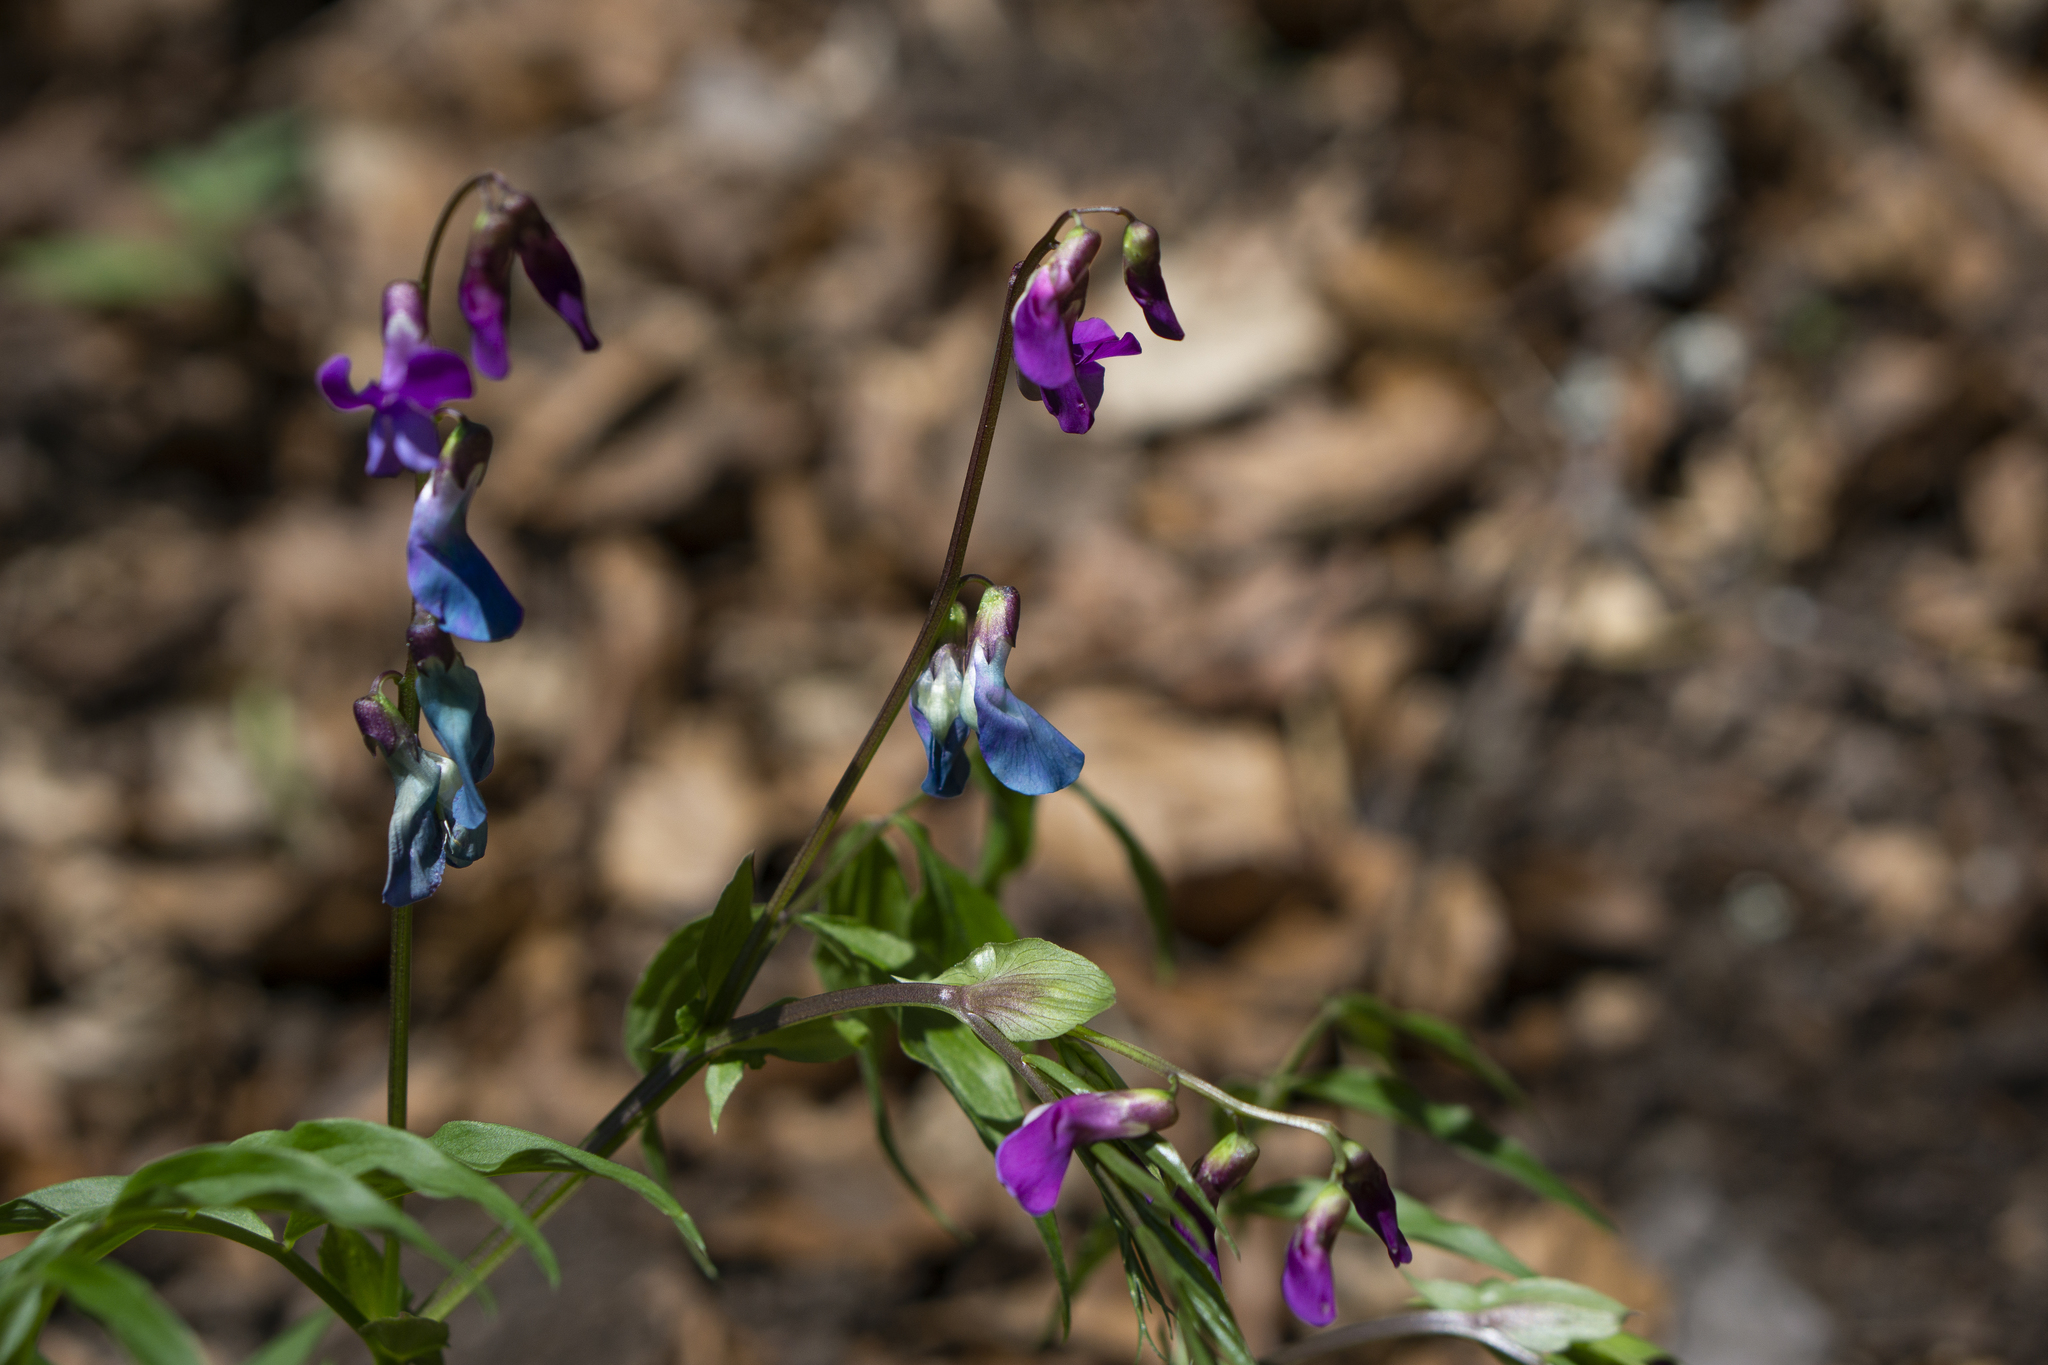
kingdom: Plantae
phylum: Tracheophyta
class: Magnoliopsida
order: Fabales
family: Fabaceae
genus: Lathyrus
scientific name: Lathyrus vernus
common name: Spring pea
